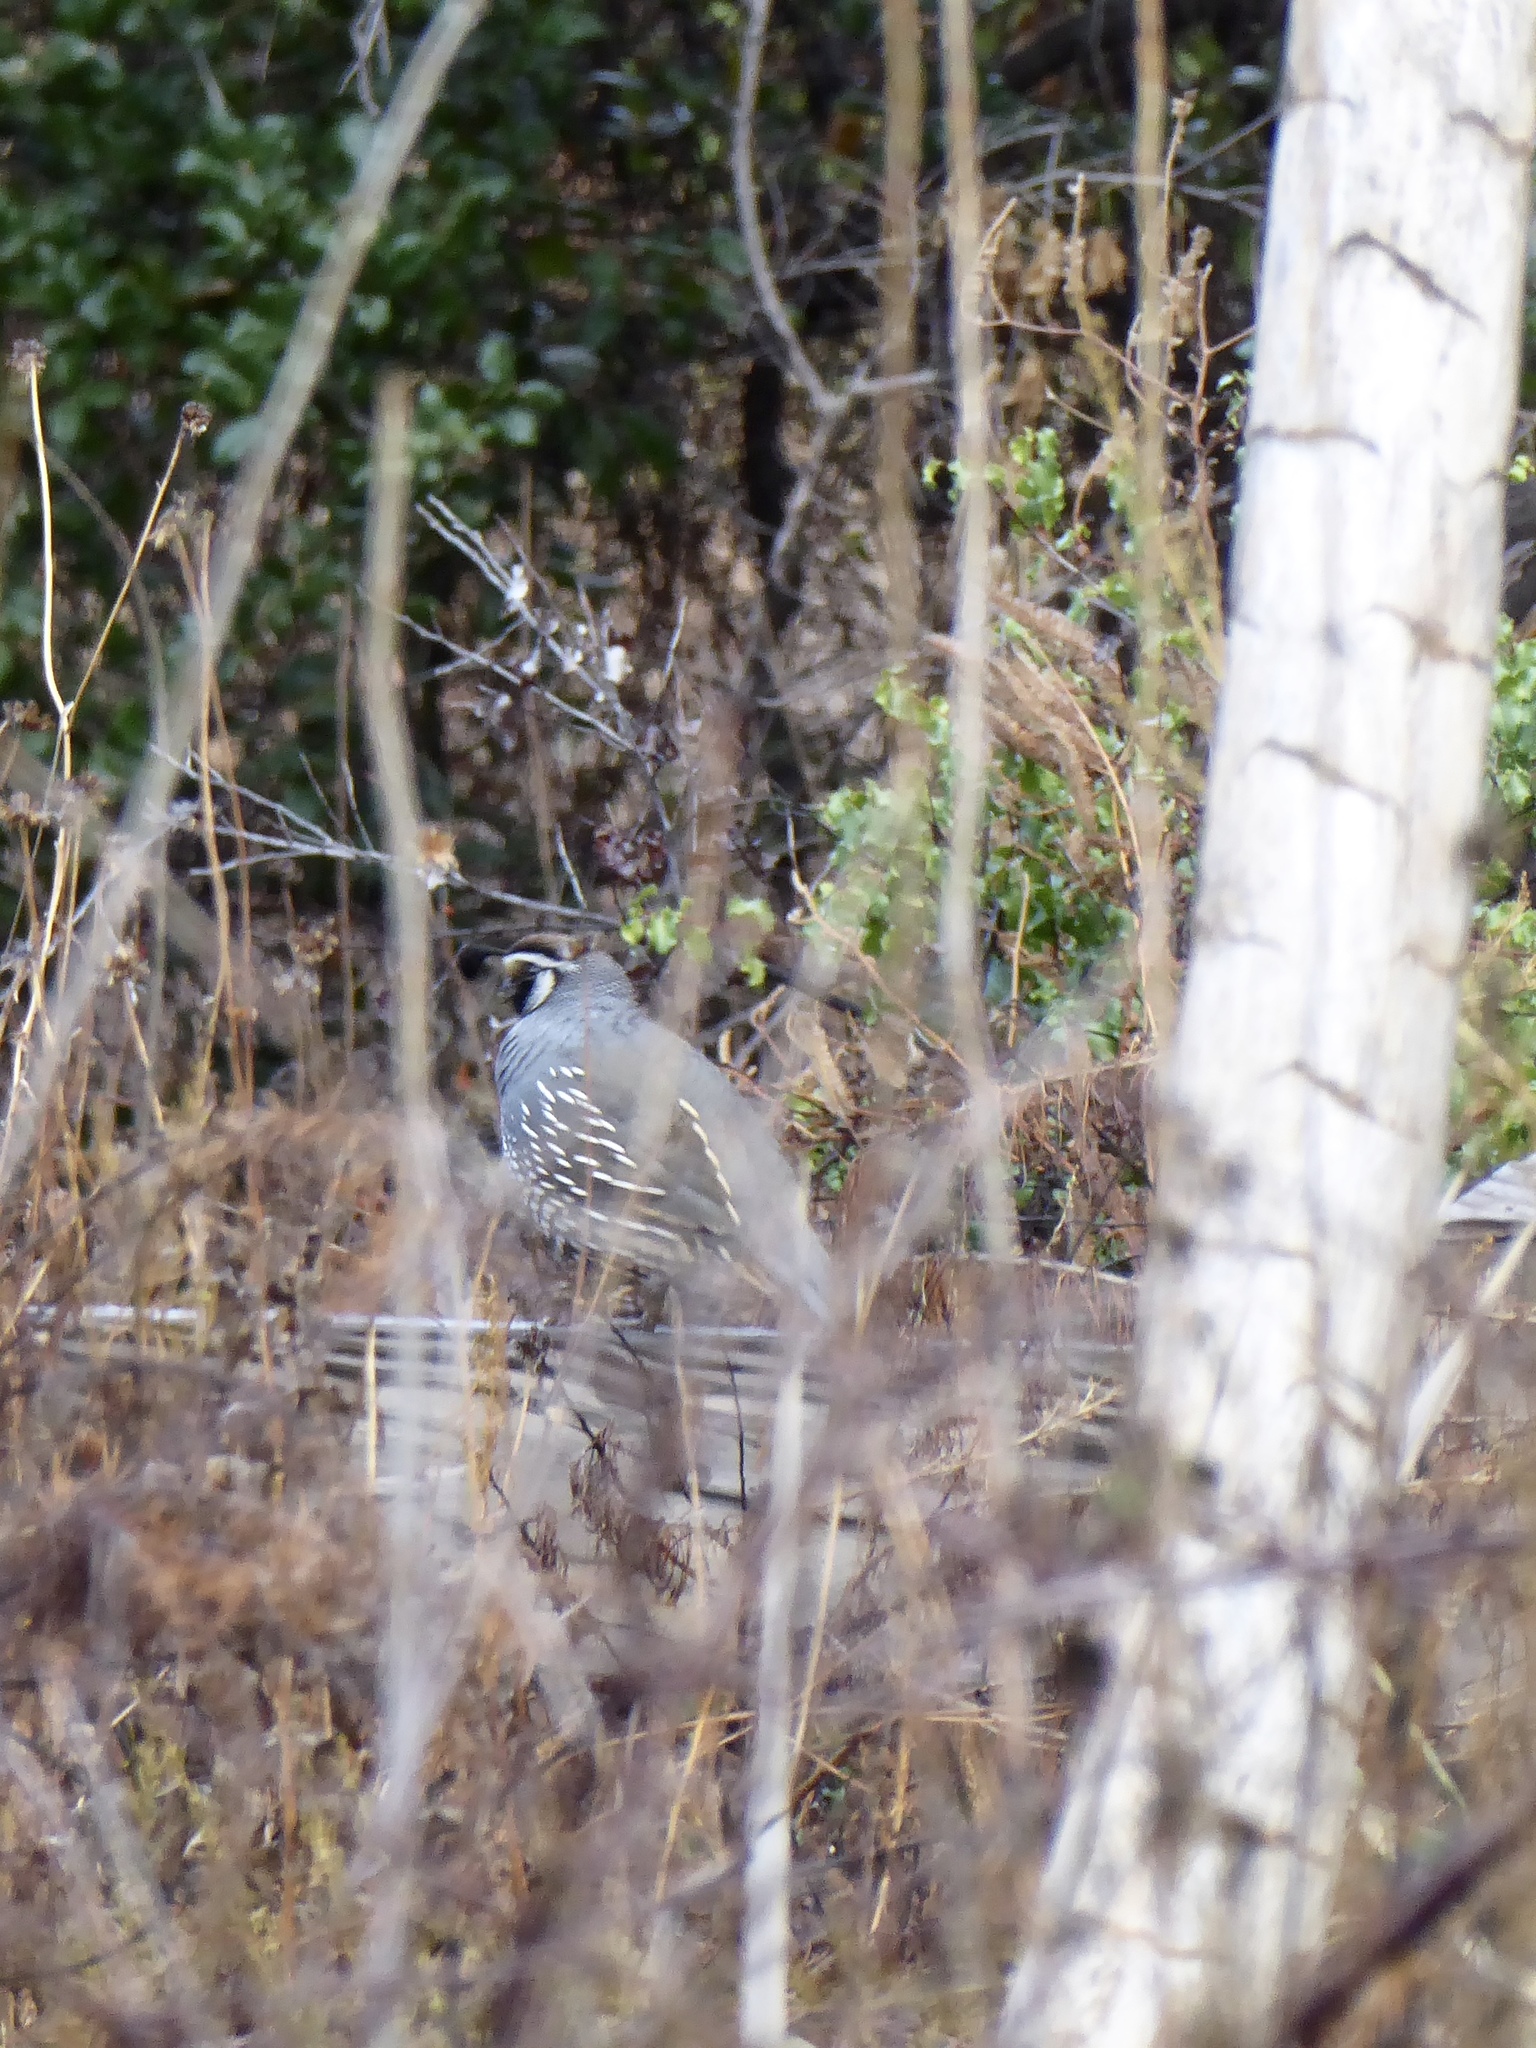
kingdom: Animalia
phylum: Chordata
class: Aves
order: Galliformes
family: Odontophoridae
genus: Callipepla
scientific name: Callipepla californica
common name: California quail
